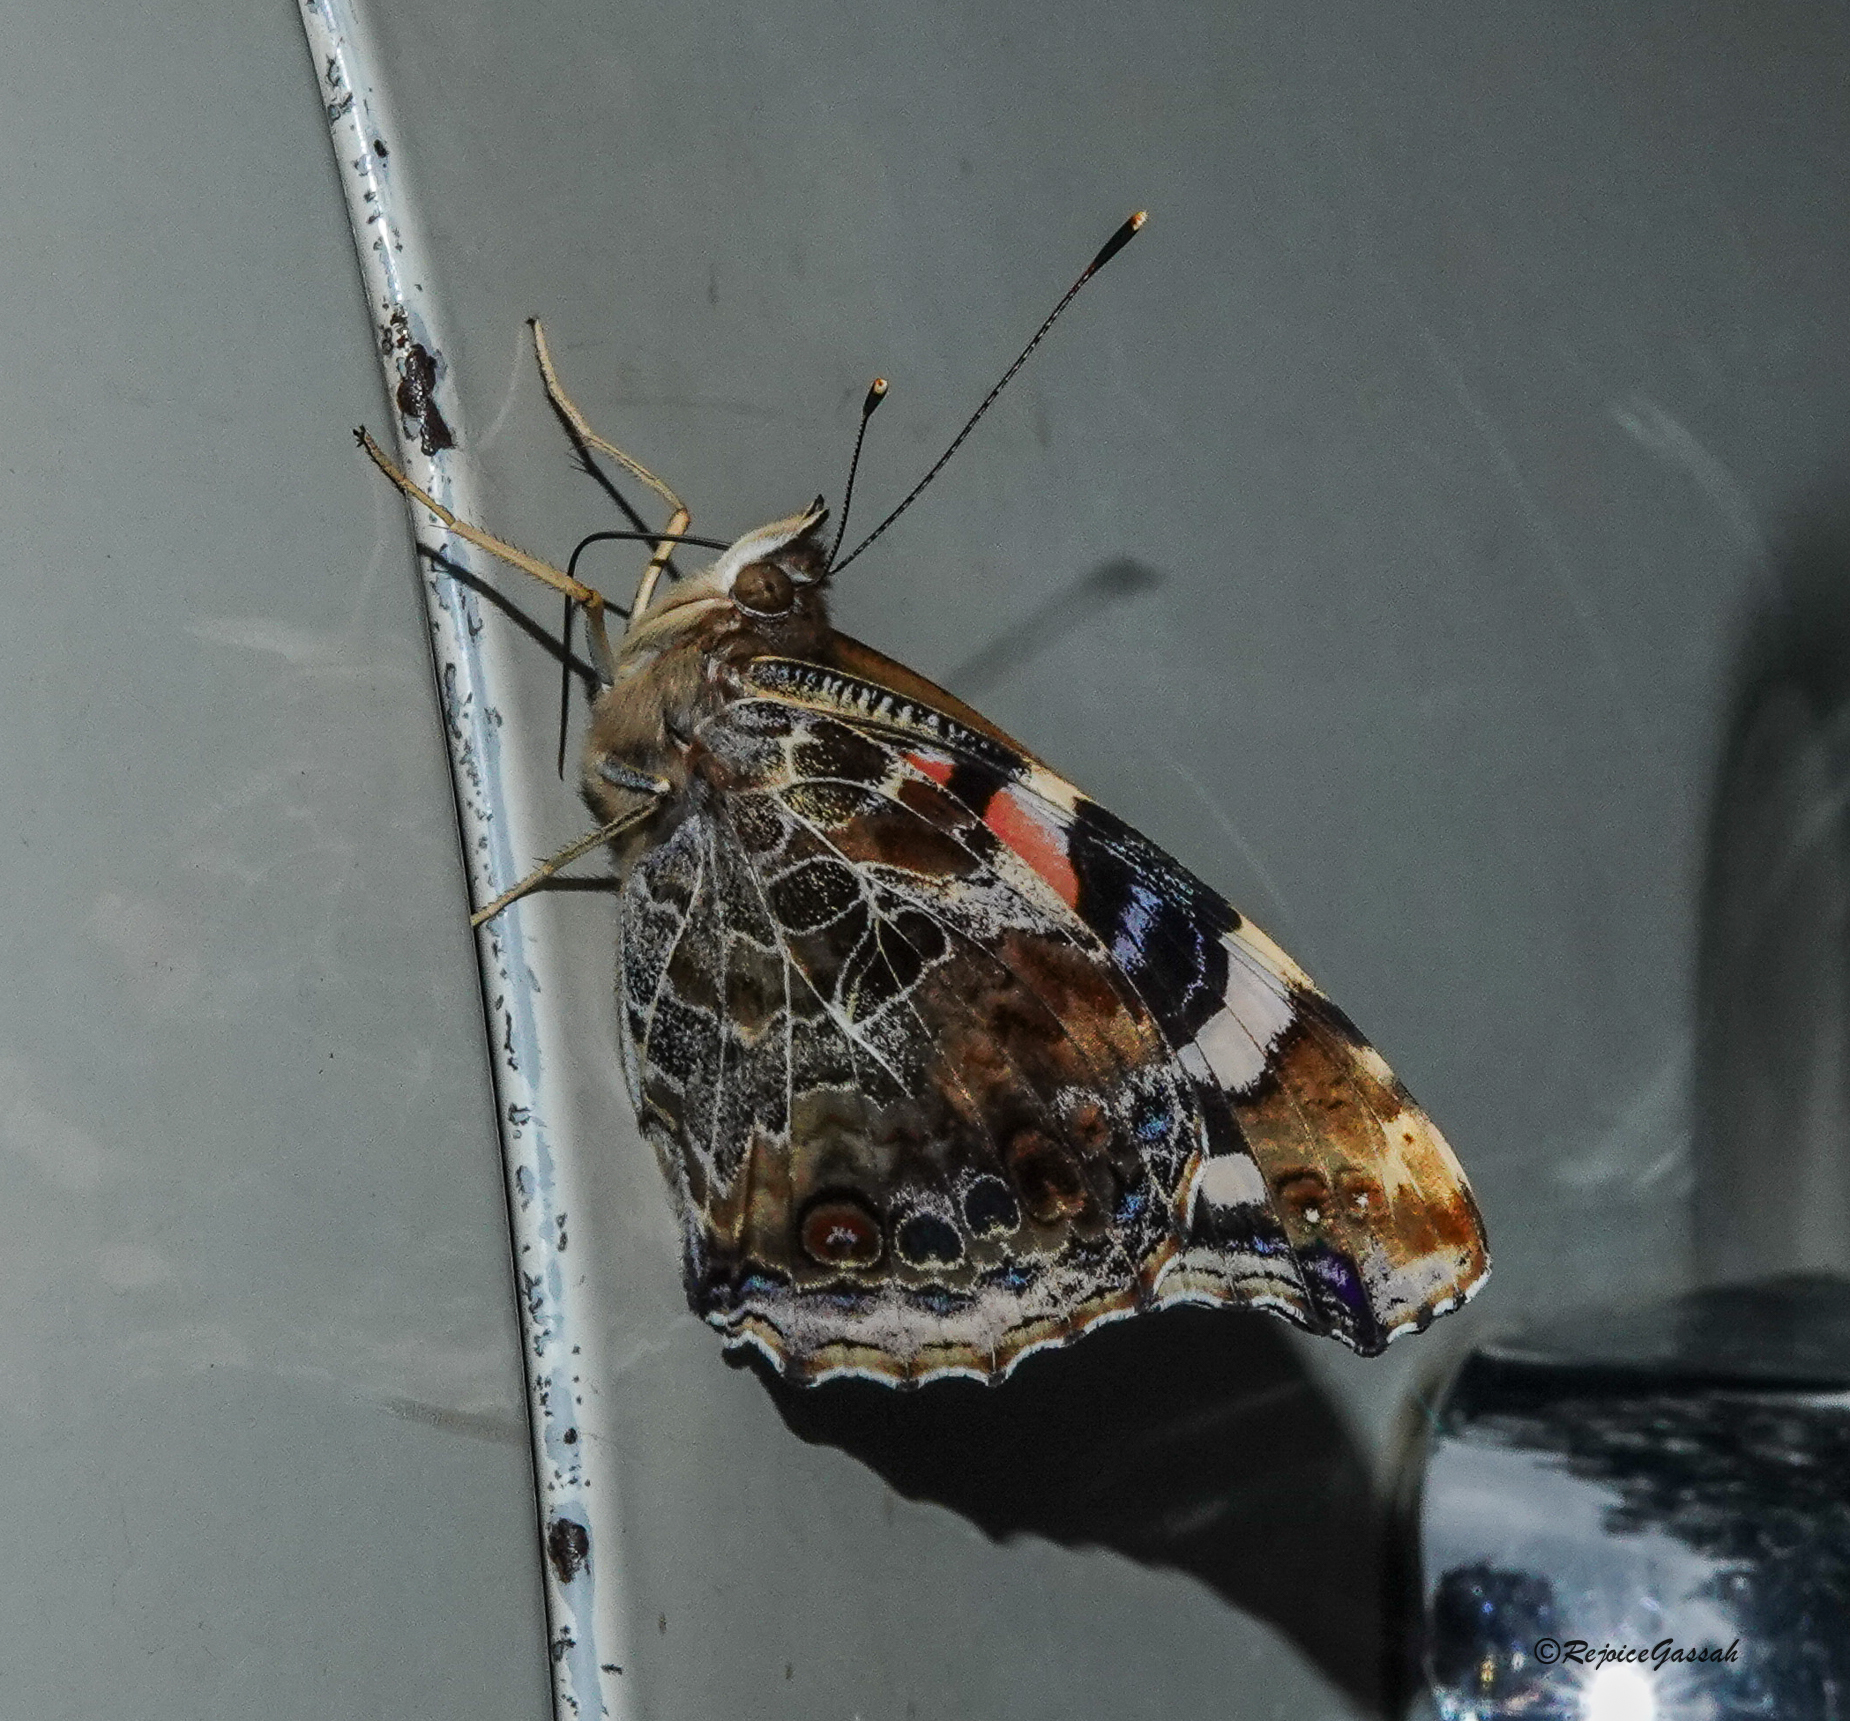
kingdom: Animalia
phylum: Arthropoda
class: Insecta
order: Lepidoptera
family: Nymphalidae
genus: Vanessa
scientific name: Vanessa indica
